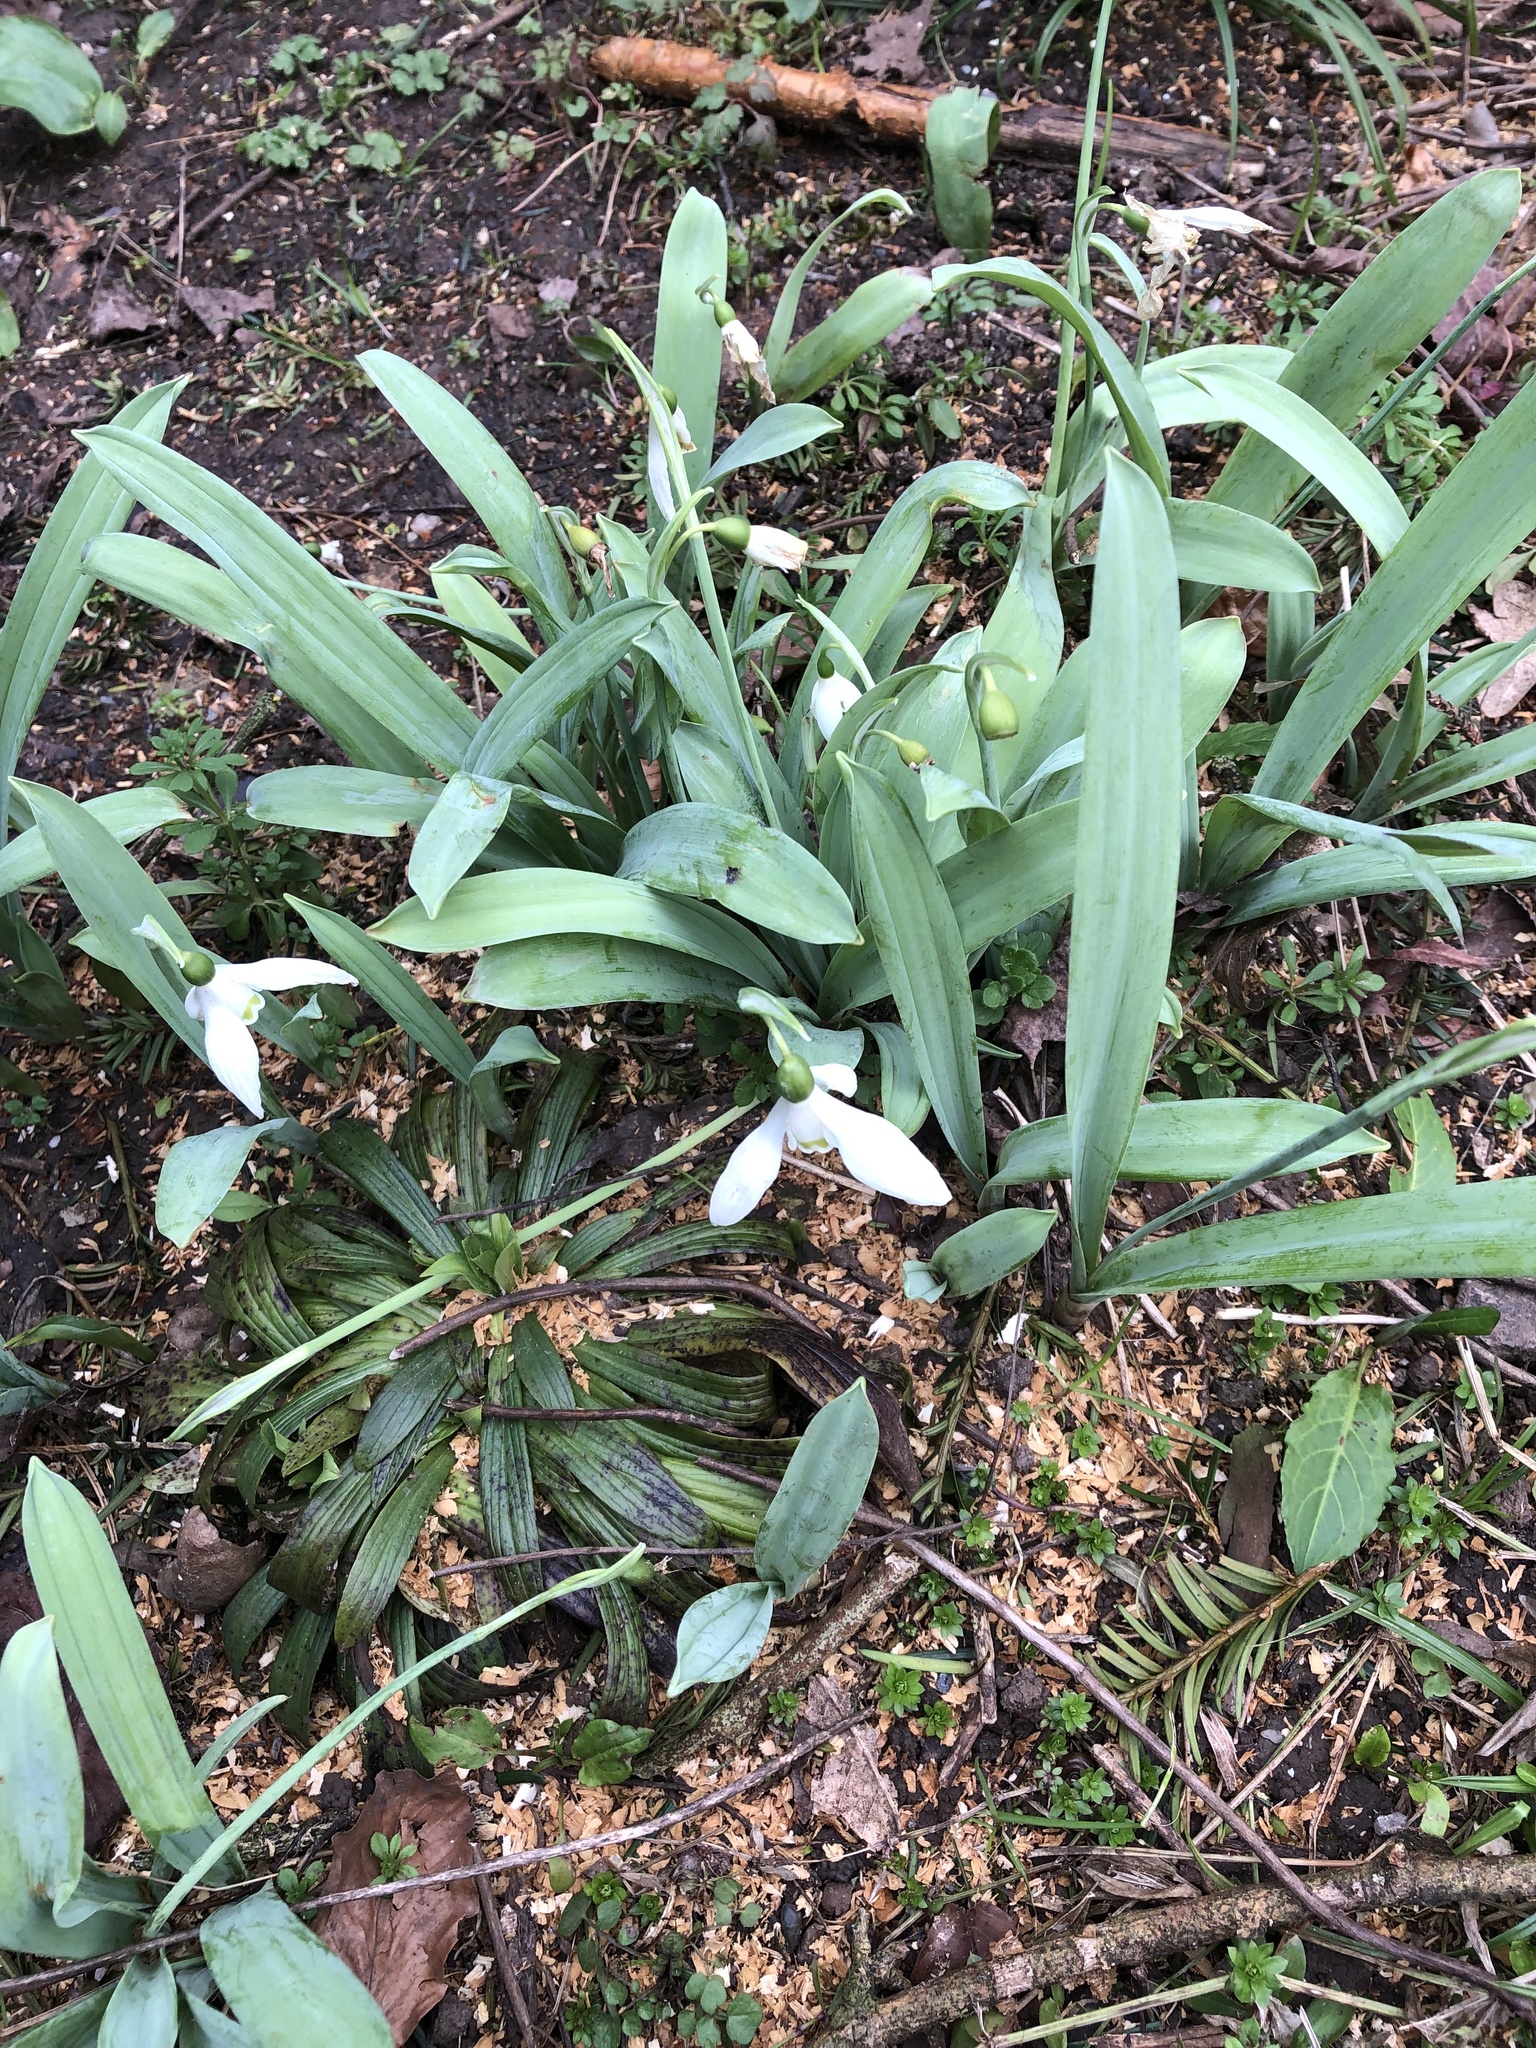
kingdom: Plantae
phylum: Tracheophyta
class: Liliopsida
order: Asparagales
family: Amaryllidaceae
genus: Galanthus
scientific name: Galanthus elwesii
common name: Greater snowdrop
